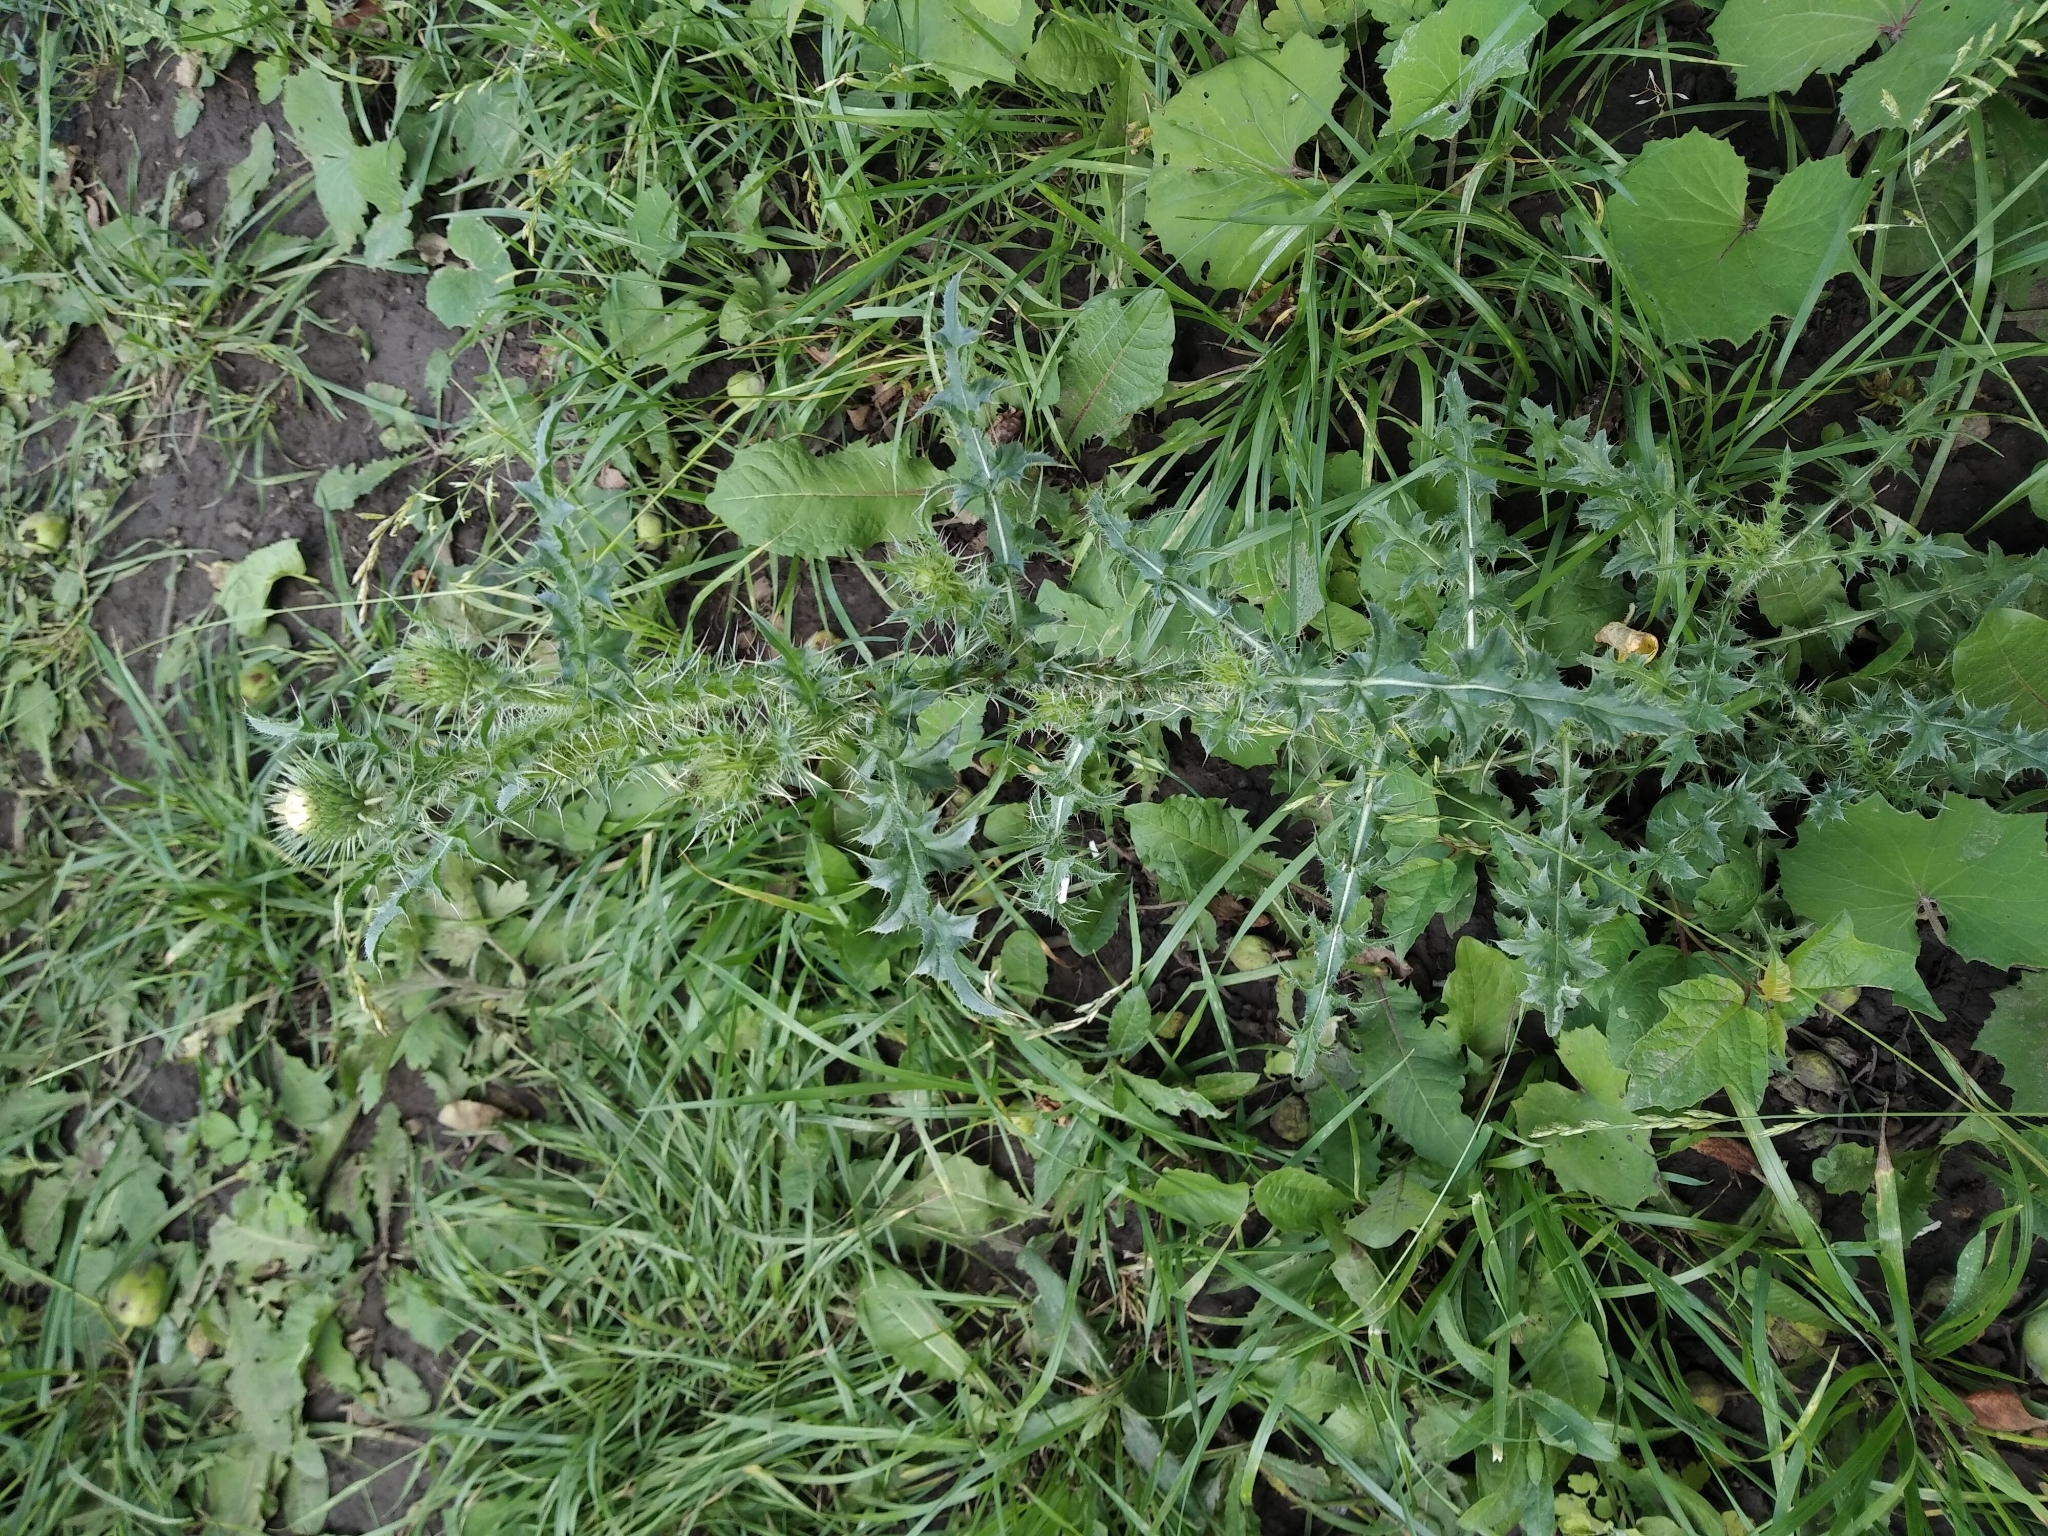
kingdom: Plantae
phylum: Tracheophyta
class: Magnoliopsida
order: Asterales
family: Asteraceae
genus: Carduus
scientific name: Carduus acanthoides
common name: Plumeless thistle
